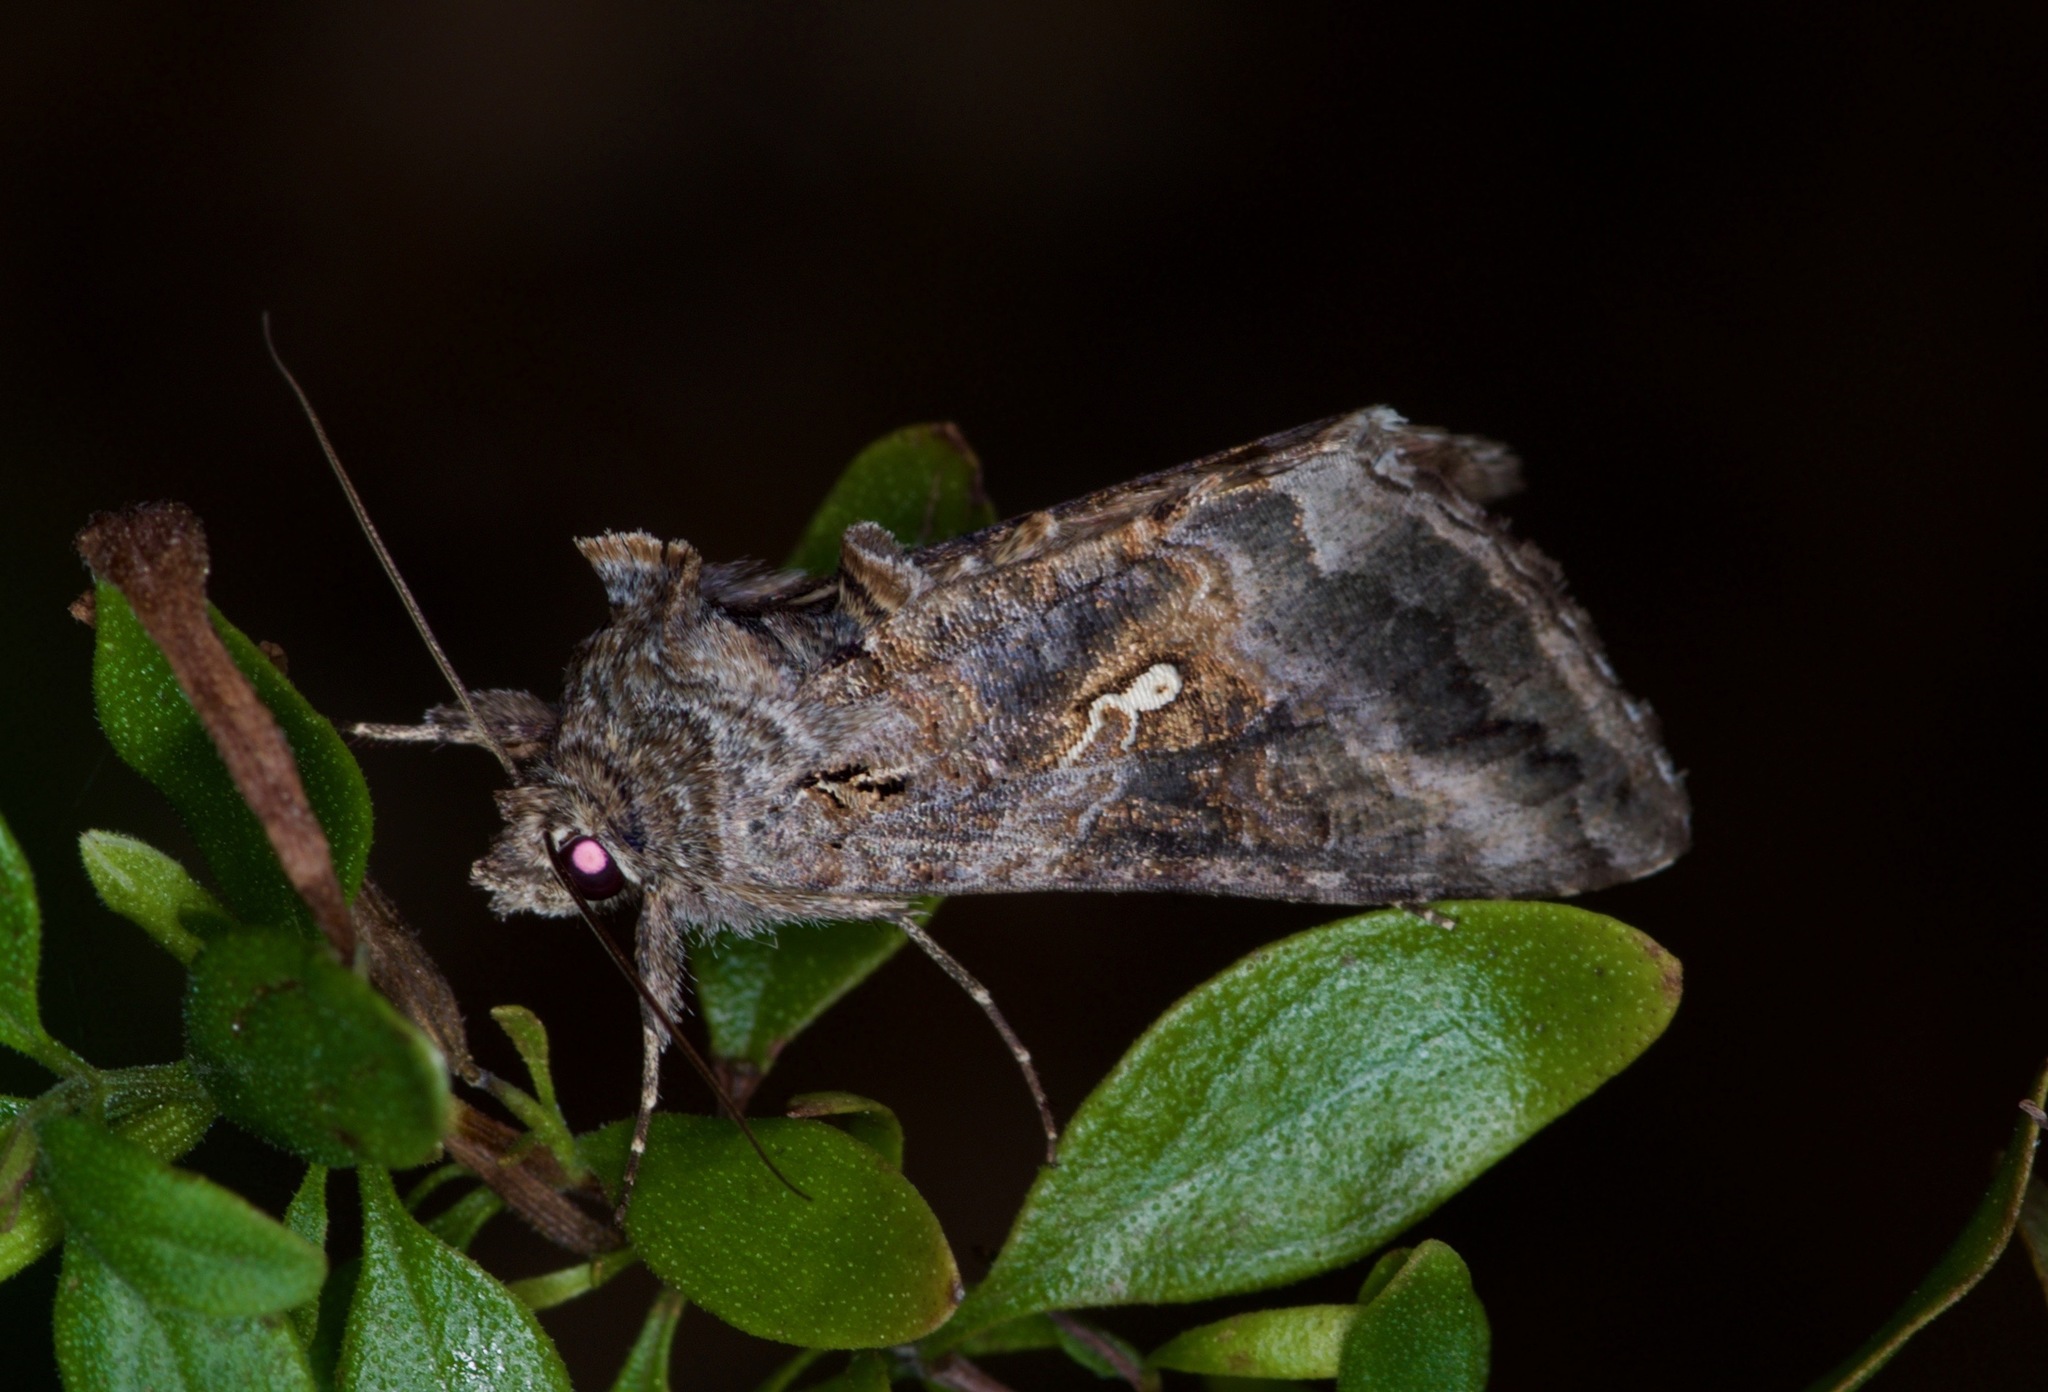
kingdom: Animalia
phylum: Arthropoda
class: Insecta
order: Lepidoptera
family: Noctuidae
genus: Rachiplusia
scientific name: Rachiplusia ou
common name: Gray looper moth
